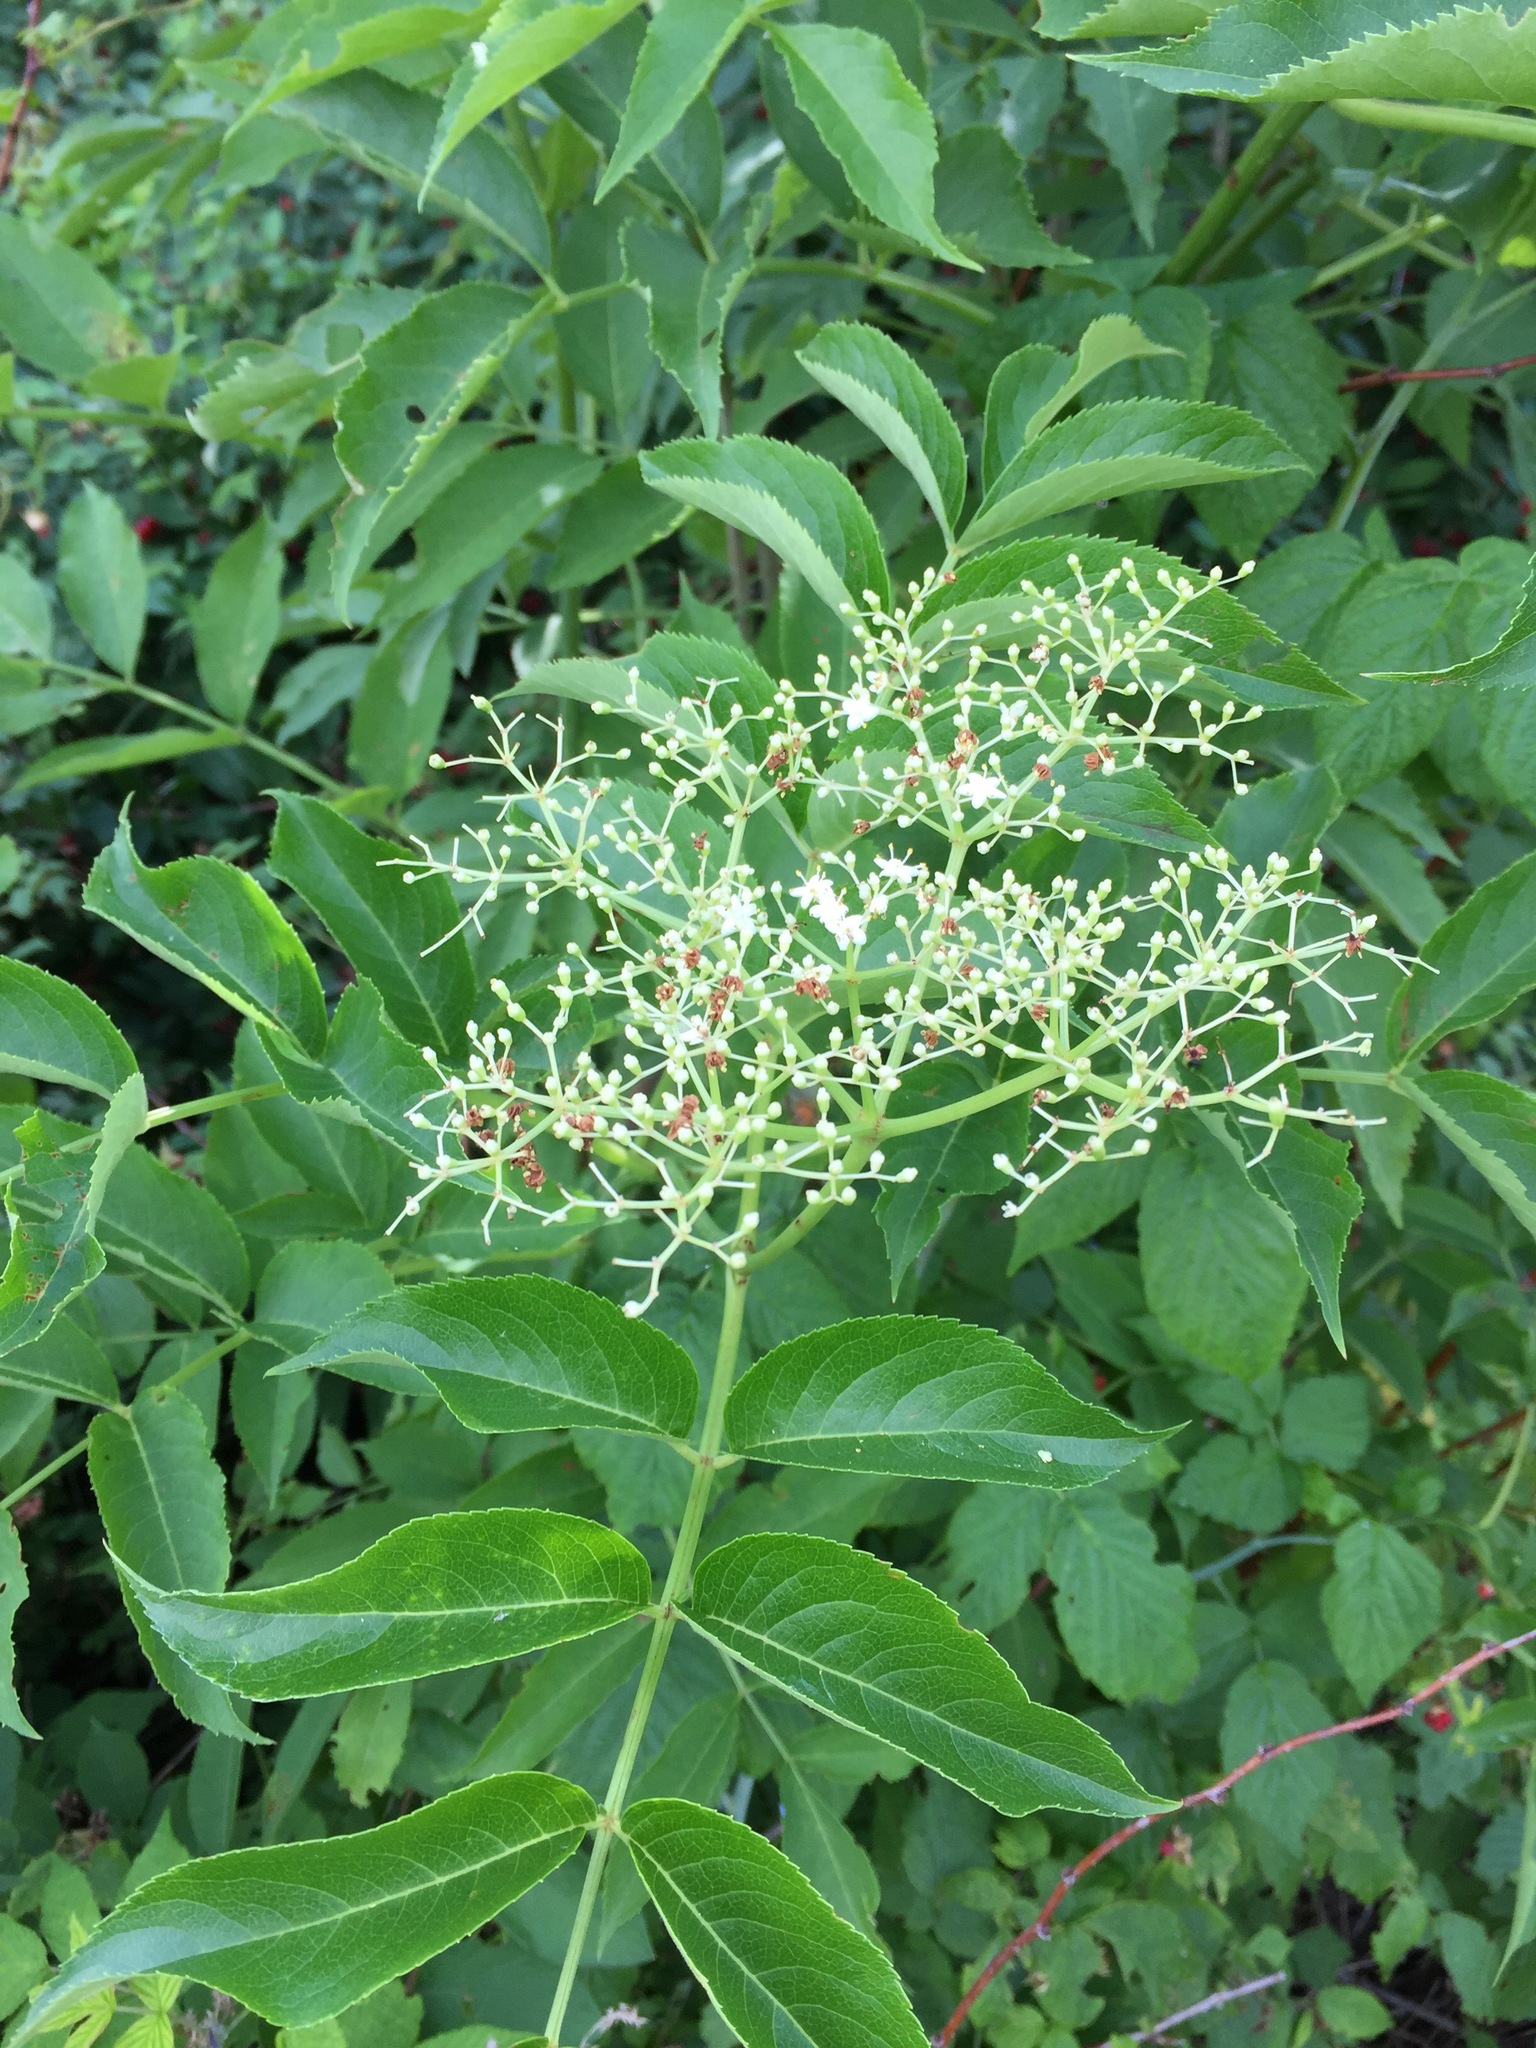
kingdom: Plantae
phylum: Tracheophyta
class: Magnoliopsida
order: Dipsacales
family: Viburnaceae
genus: Sambucus
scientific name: Sambucus canadensis
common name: American elder
